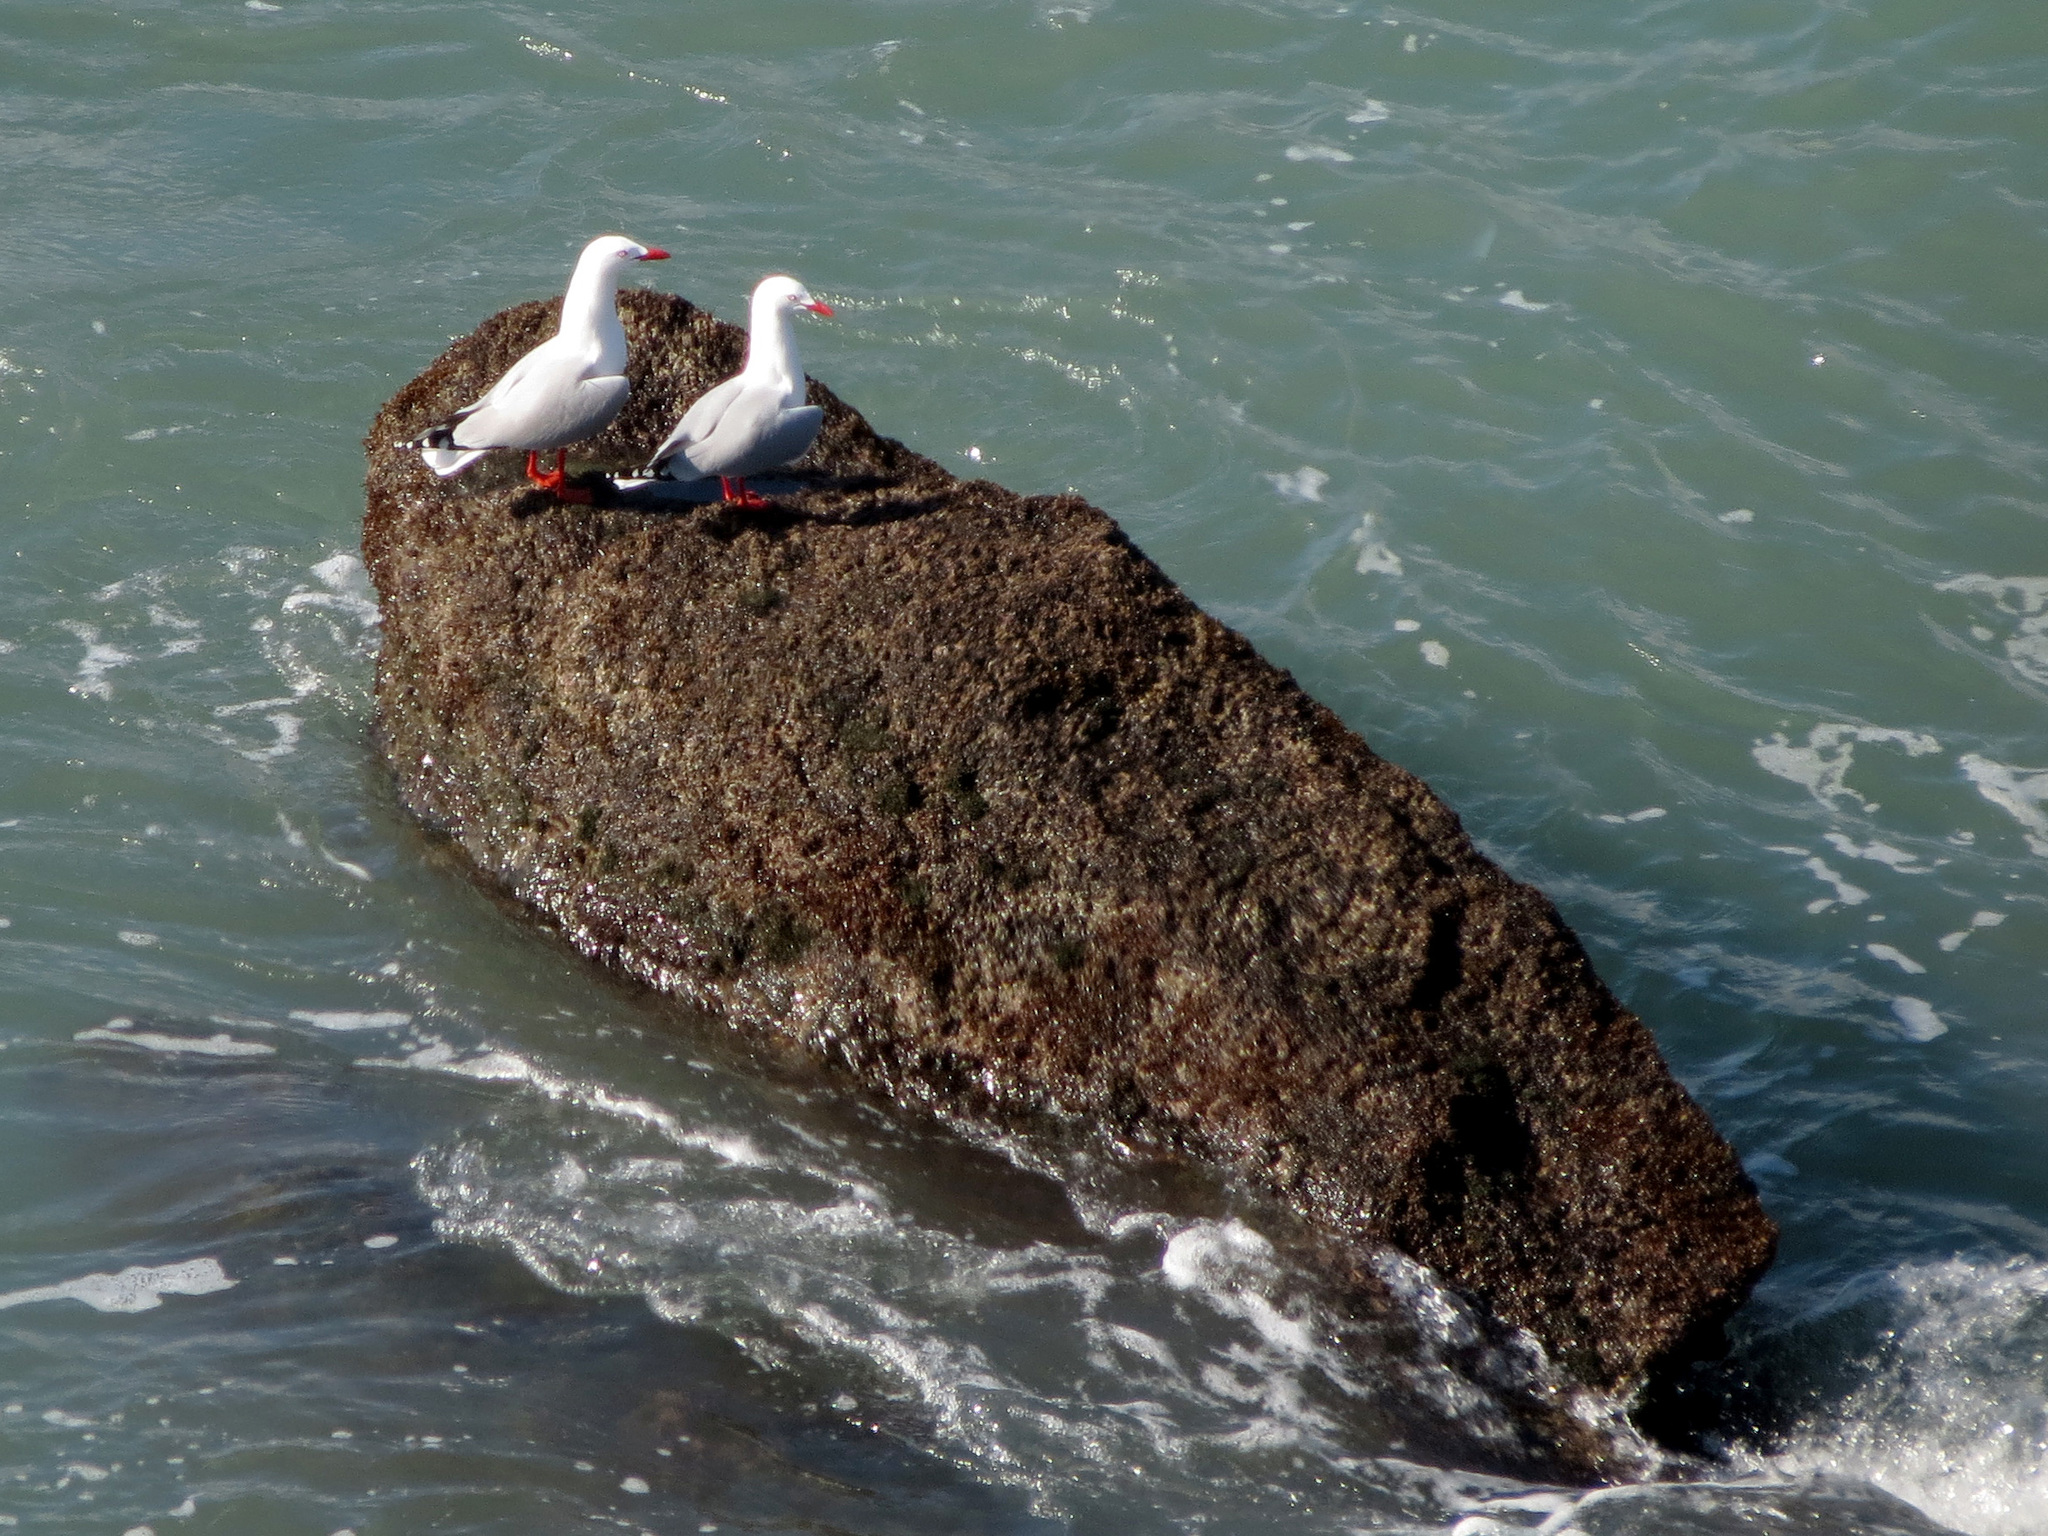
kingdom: Animalia
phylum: Chordata
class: Aves
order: Charadriiformes
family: Laridae
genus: Chroicocephalus
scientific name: Chroicocephalus novaehollandiae
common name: Silver gull
